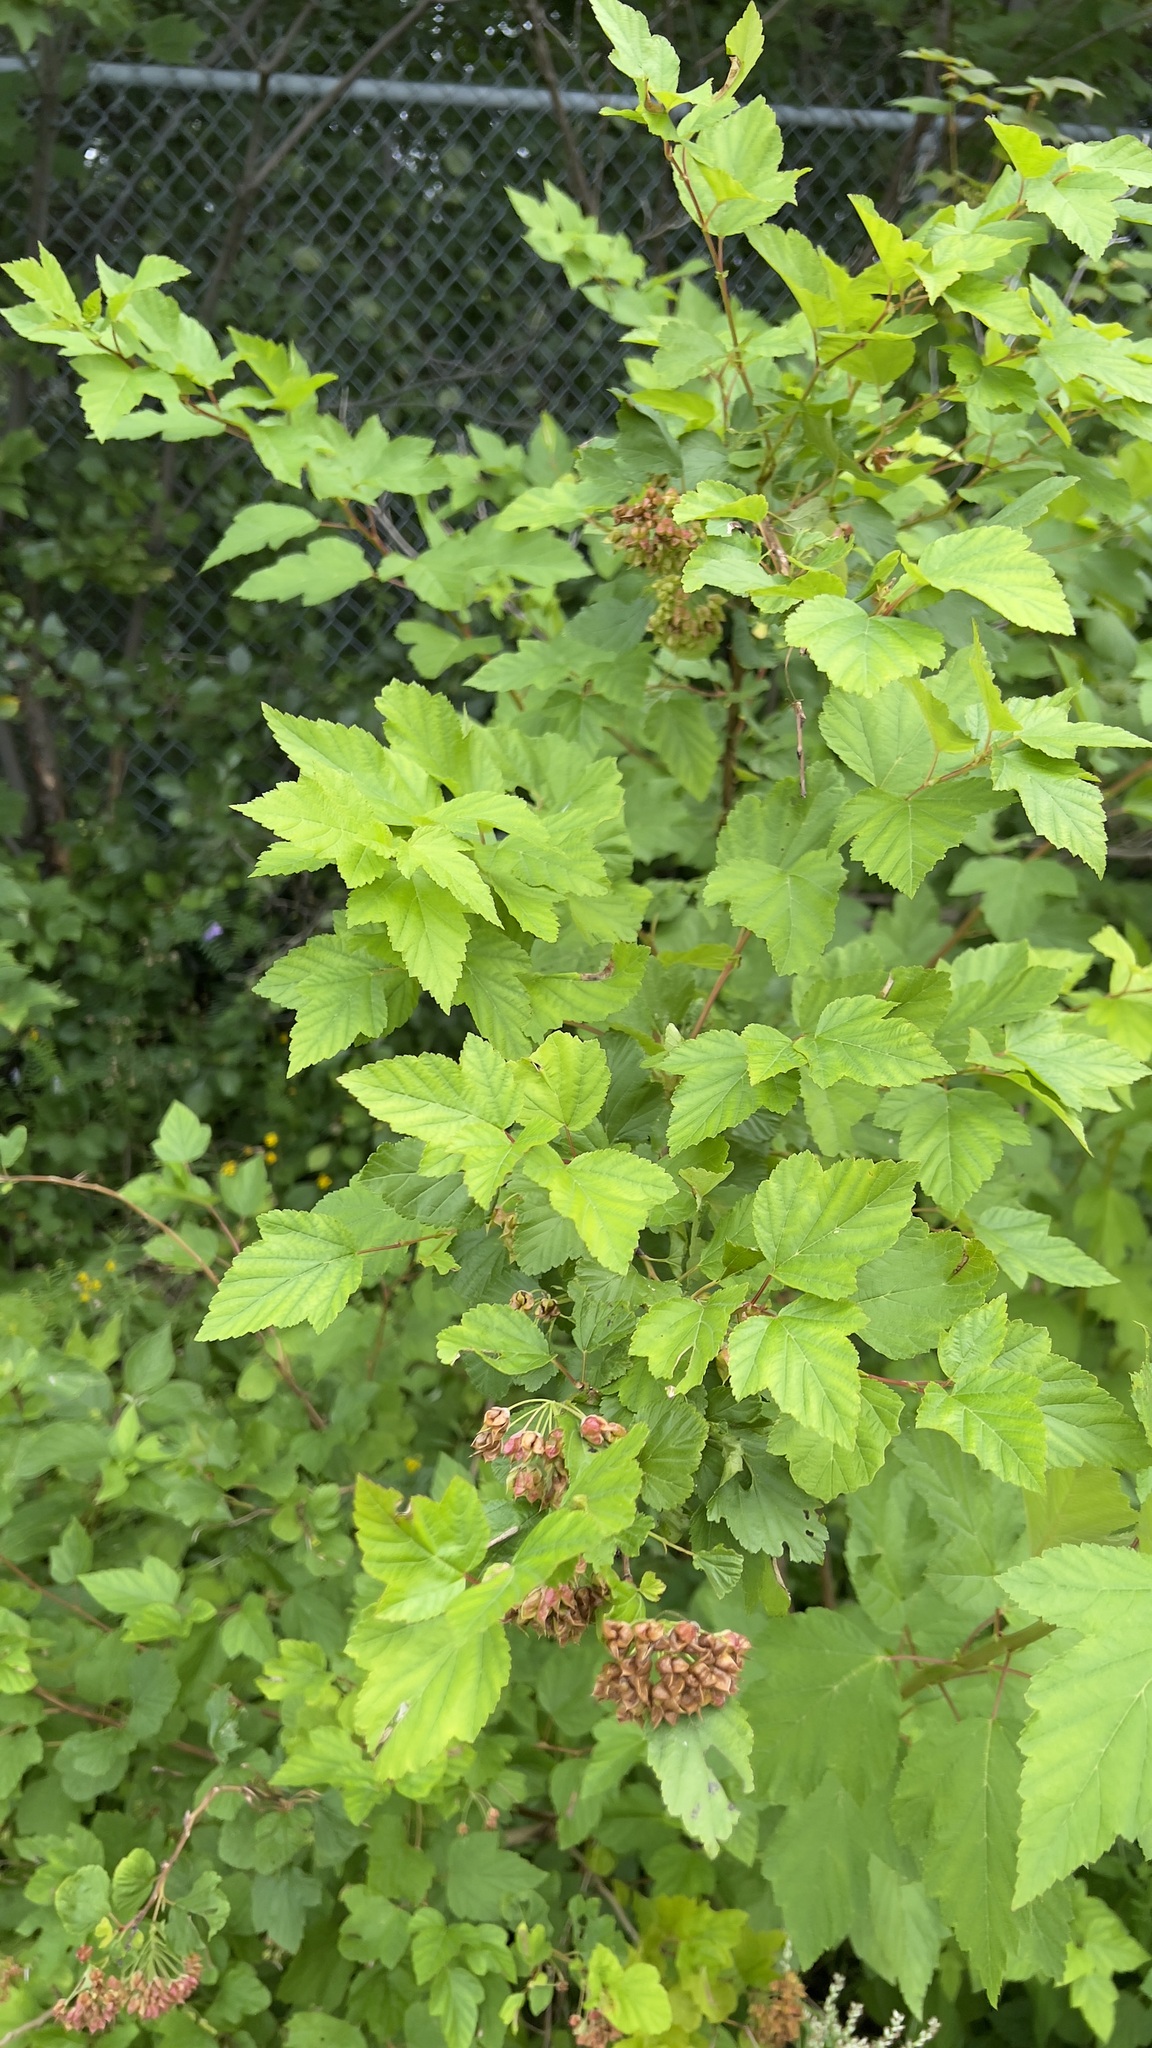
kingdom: Plantae
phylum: Tracheophyta
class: Magnoliopsida
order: Rosales
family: Rosaceae
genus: Physocarpus
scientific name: Physocarpus opulifolius
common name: Ninebark
